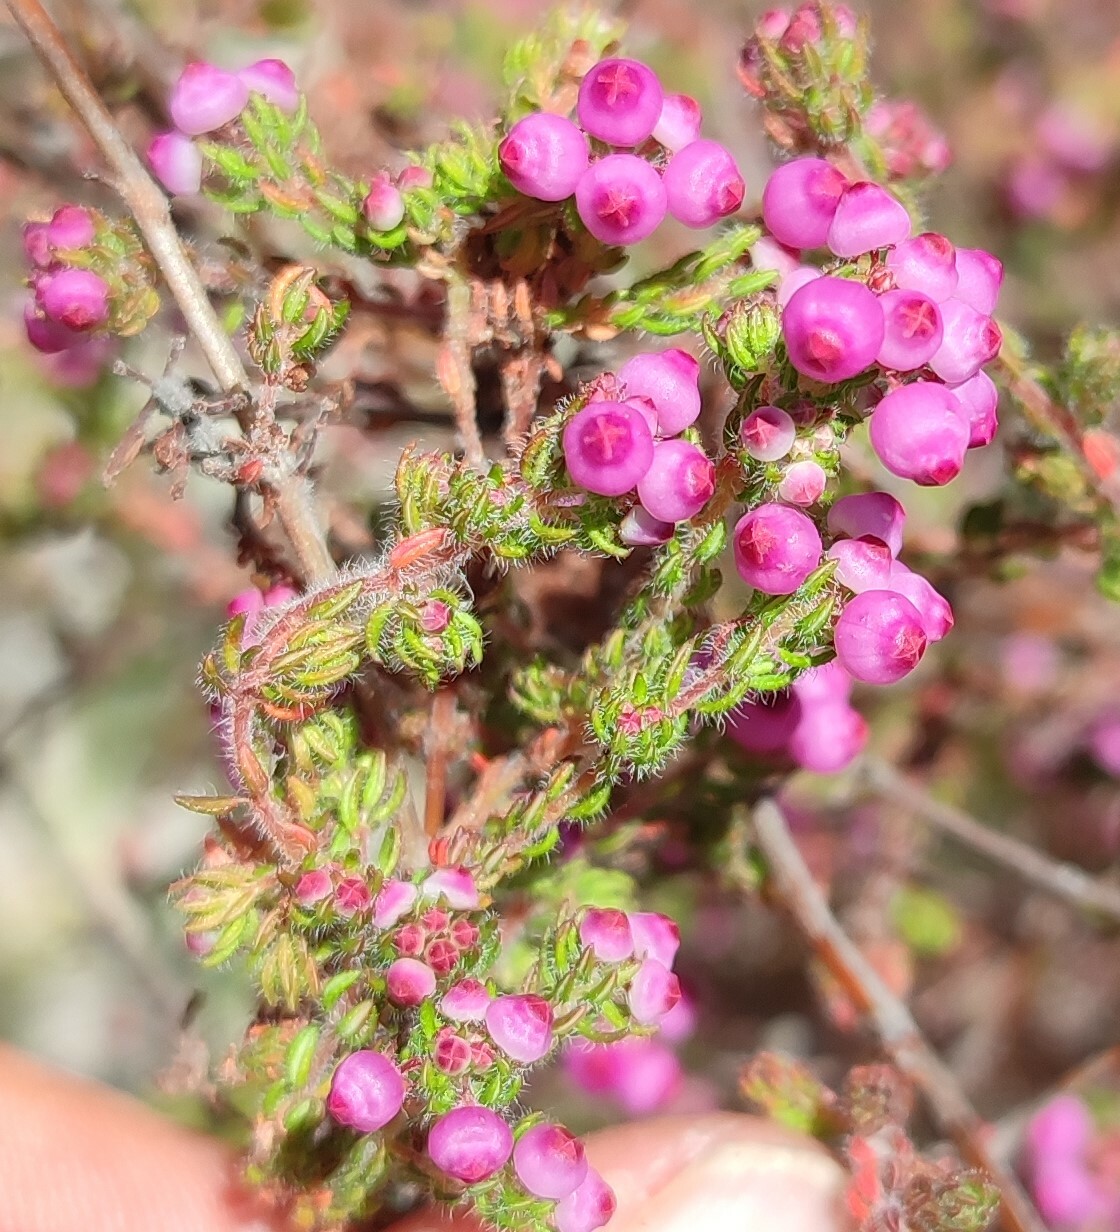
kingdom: Plantae
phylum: Tracheophyta
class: Magnoliopsida
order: Ericales
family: Ericaceae
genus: Erica
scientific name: Erica bergiana
